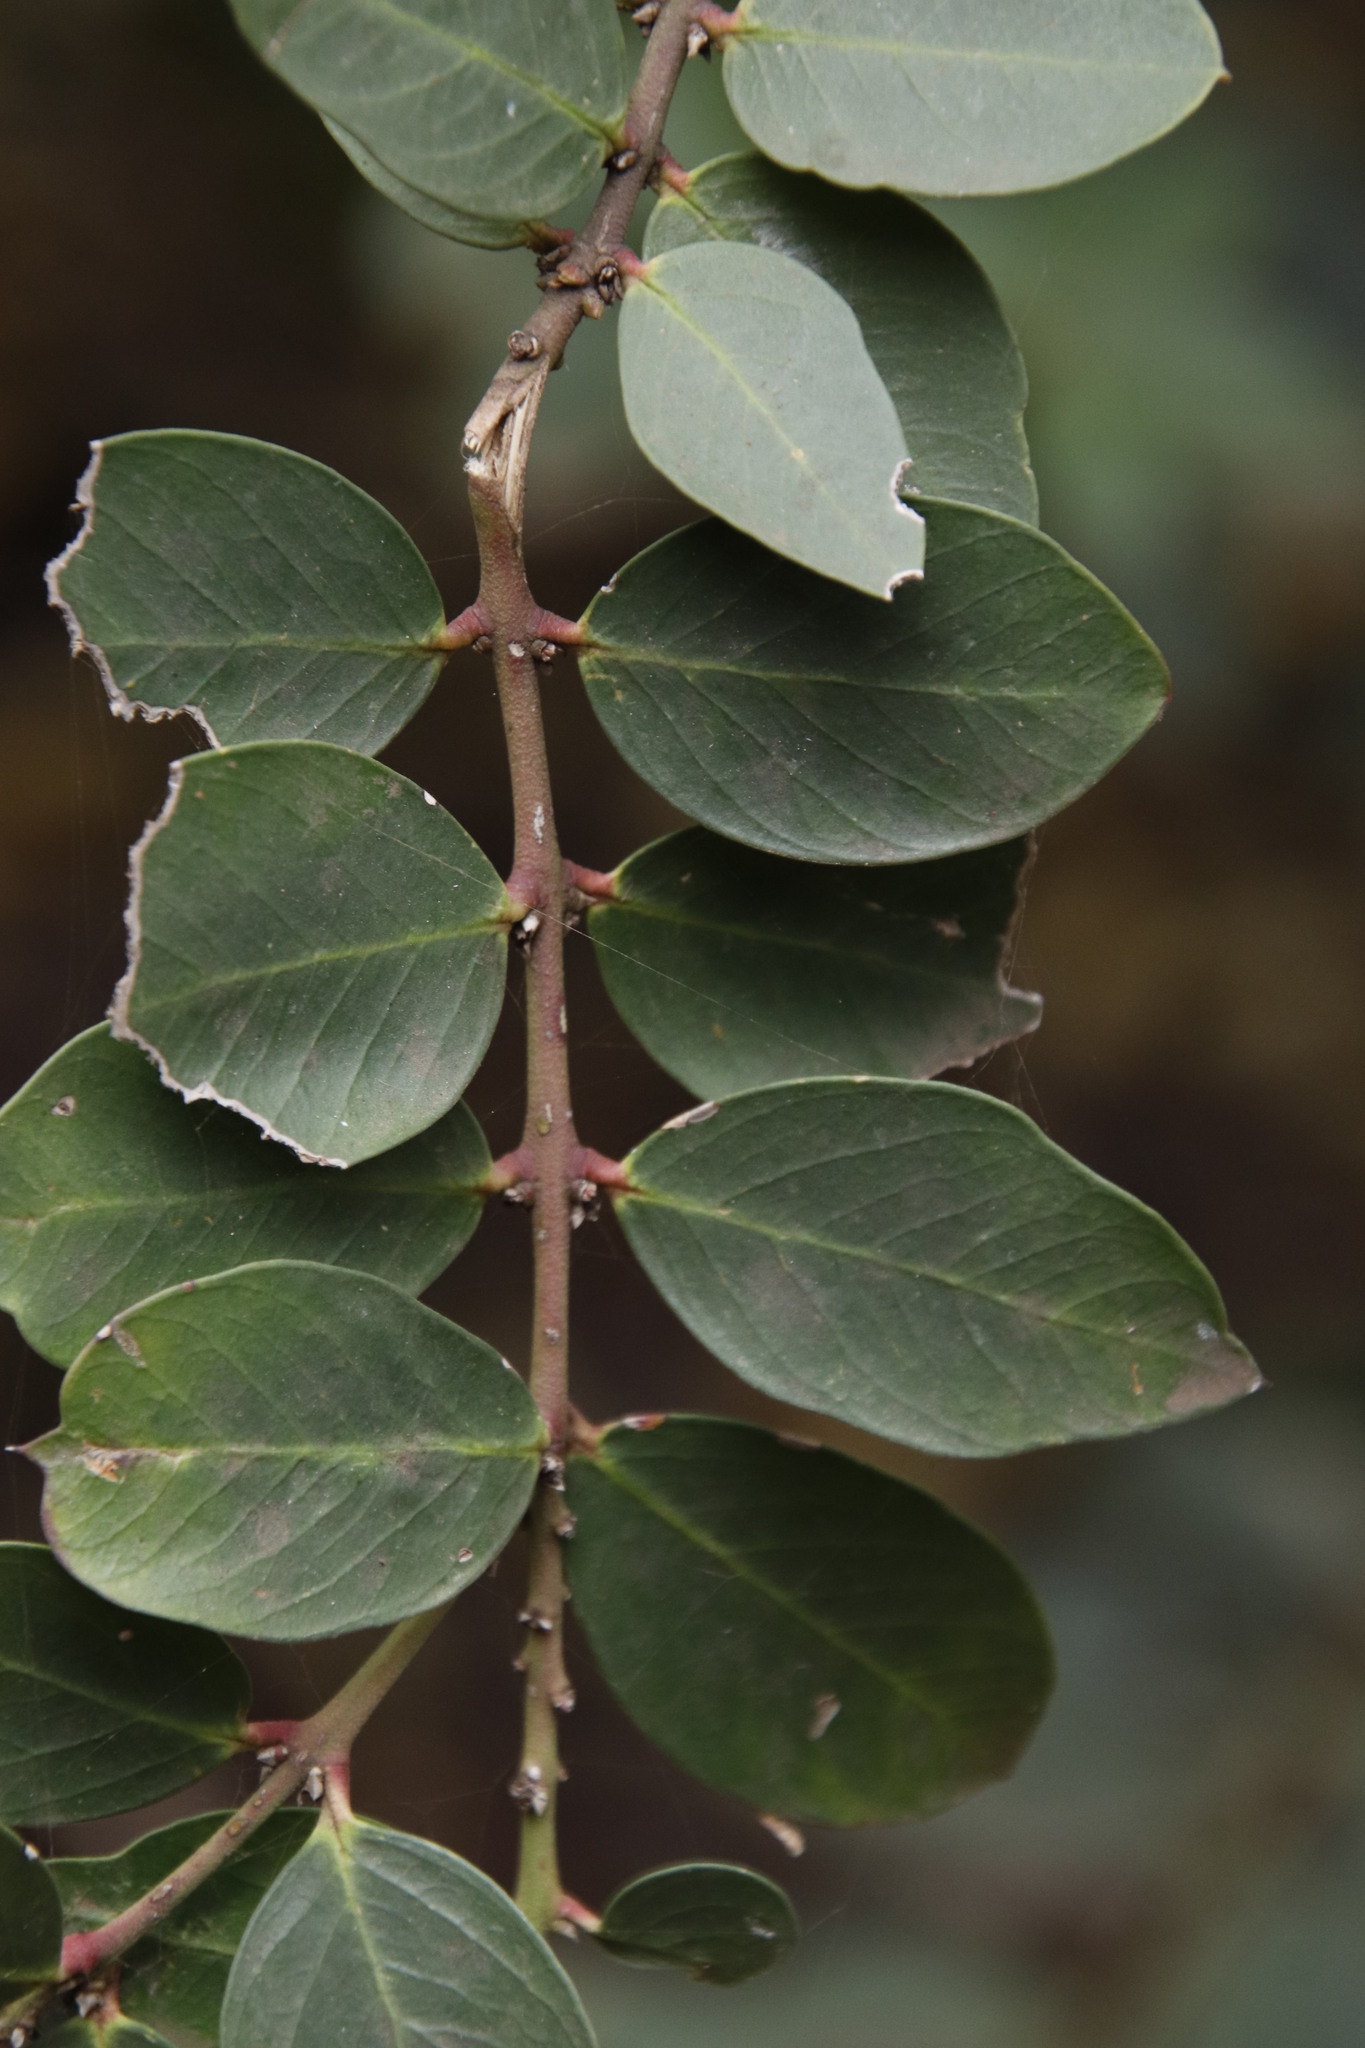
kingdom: Plantae
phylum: Tracheophyta
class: Magnoliopsida
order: Gentianales
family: Apocynaceae
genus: Acokanthera
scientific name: Acokanthera oppositifolia
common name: Bushman's-poison
